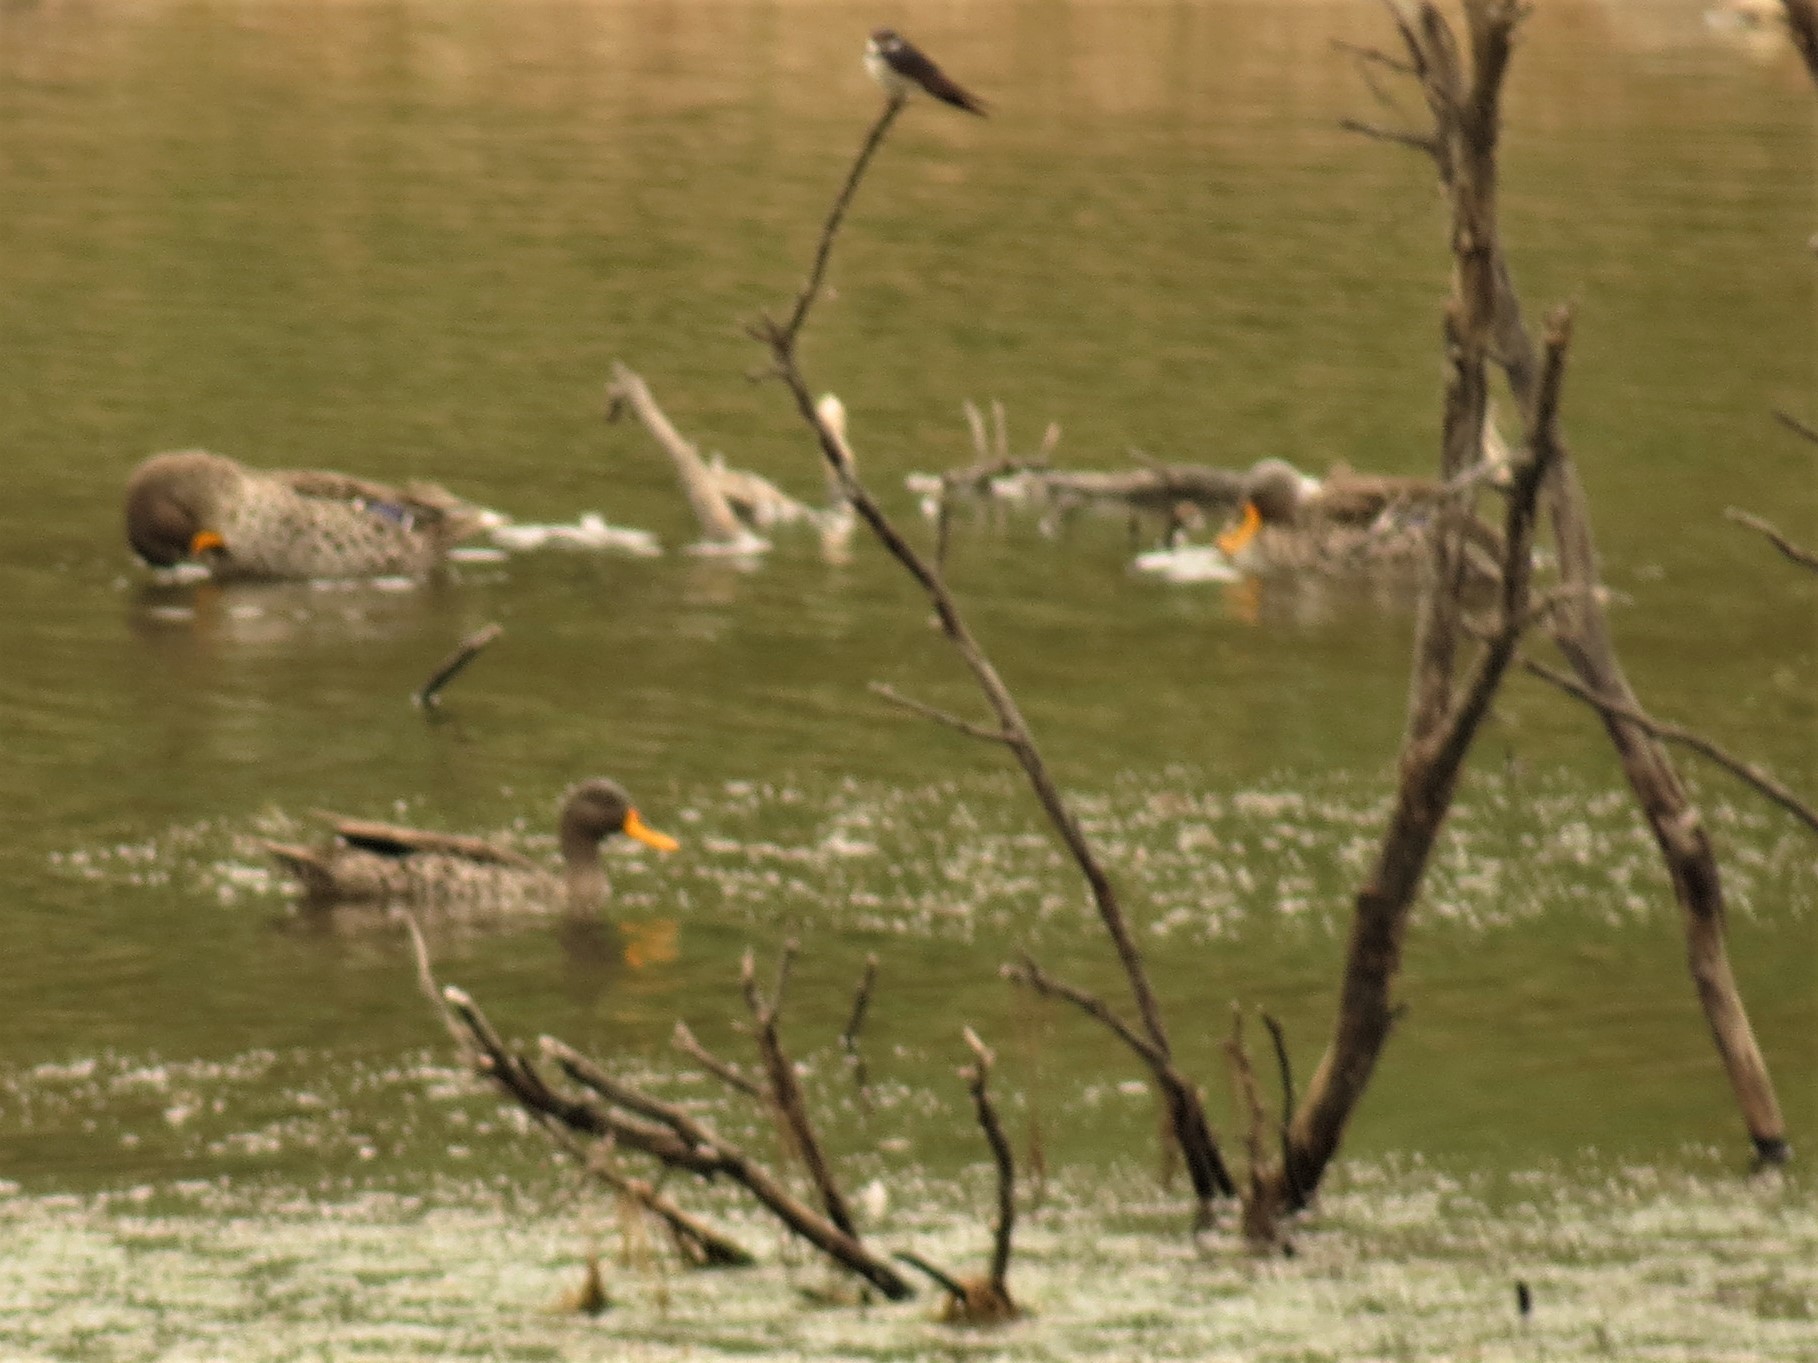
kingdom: Animalia
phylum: Chordata
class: Aves
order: Passeriformes
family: Hirundinidae
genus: Hirundo
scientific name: Hirundo albigularis
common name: White-throated swallow
